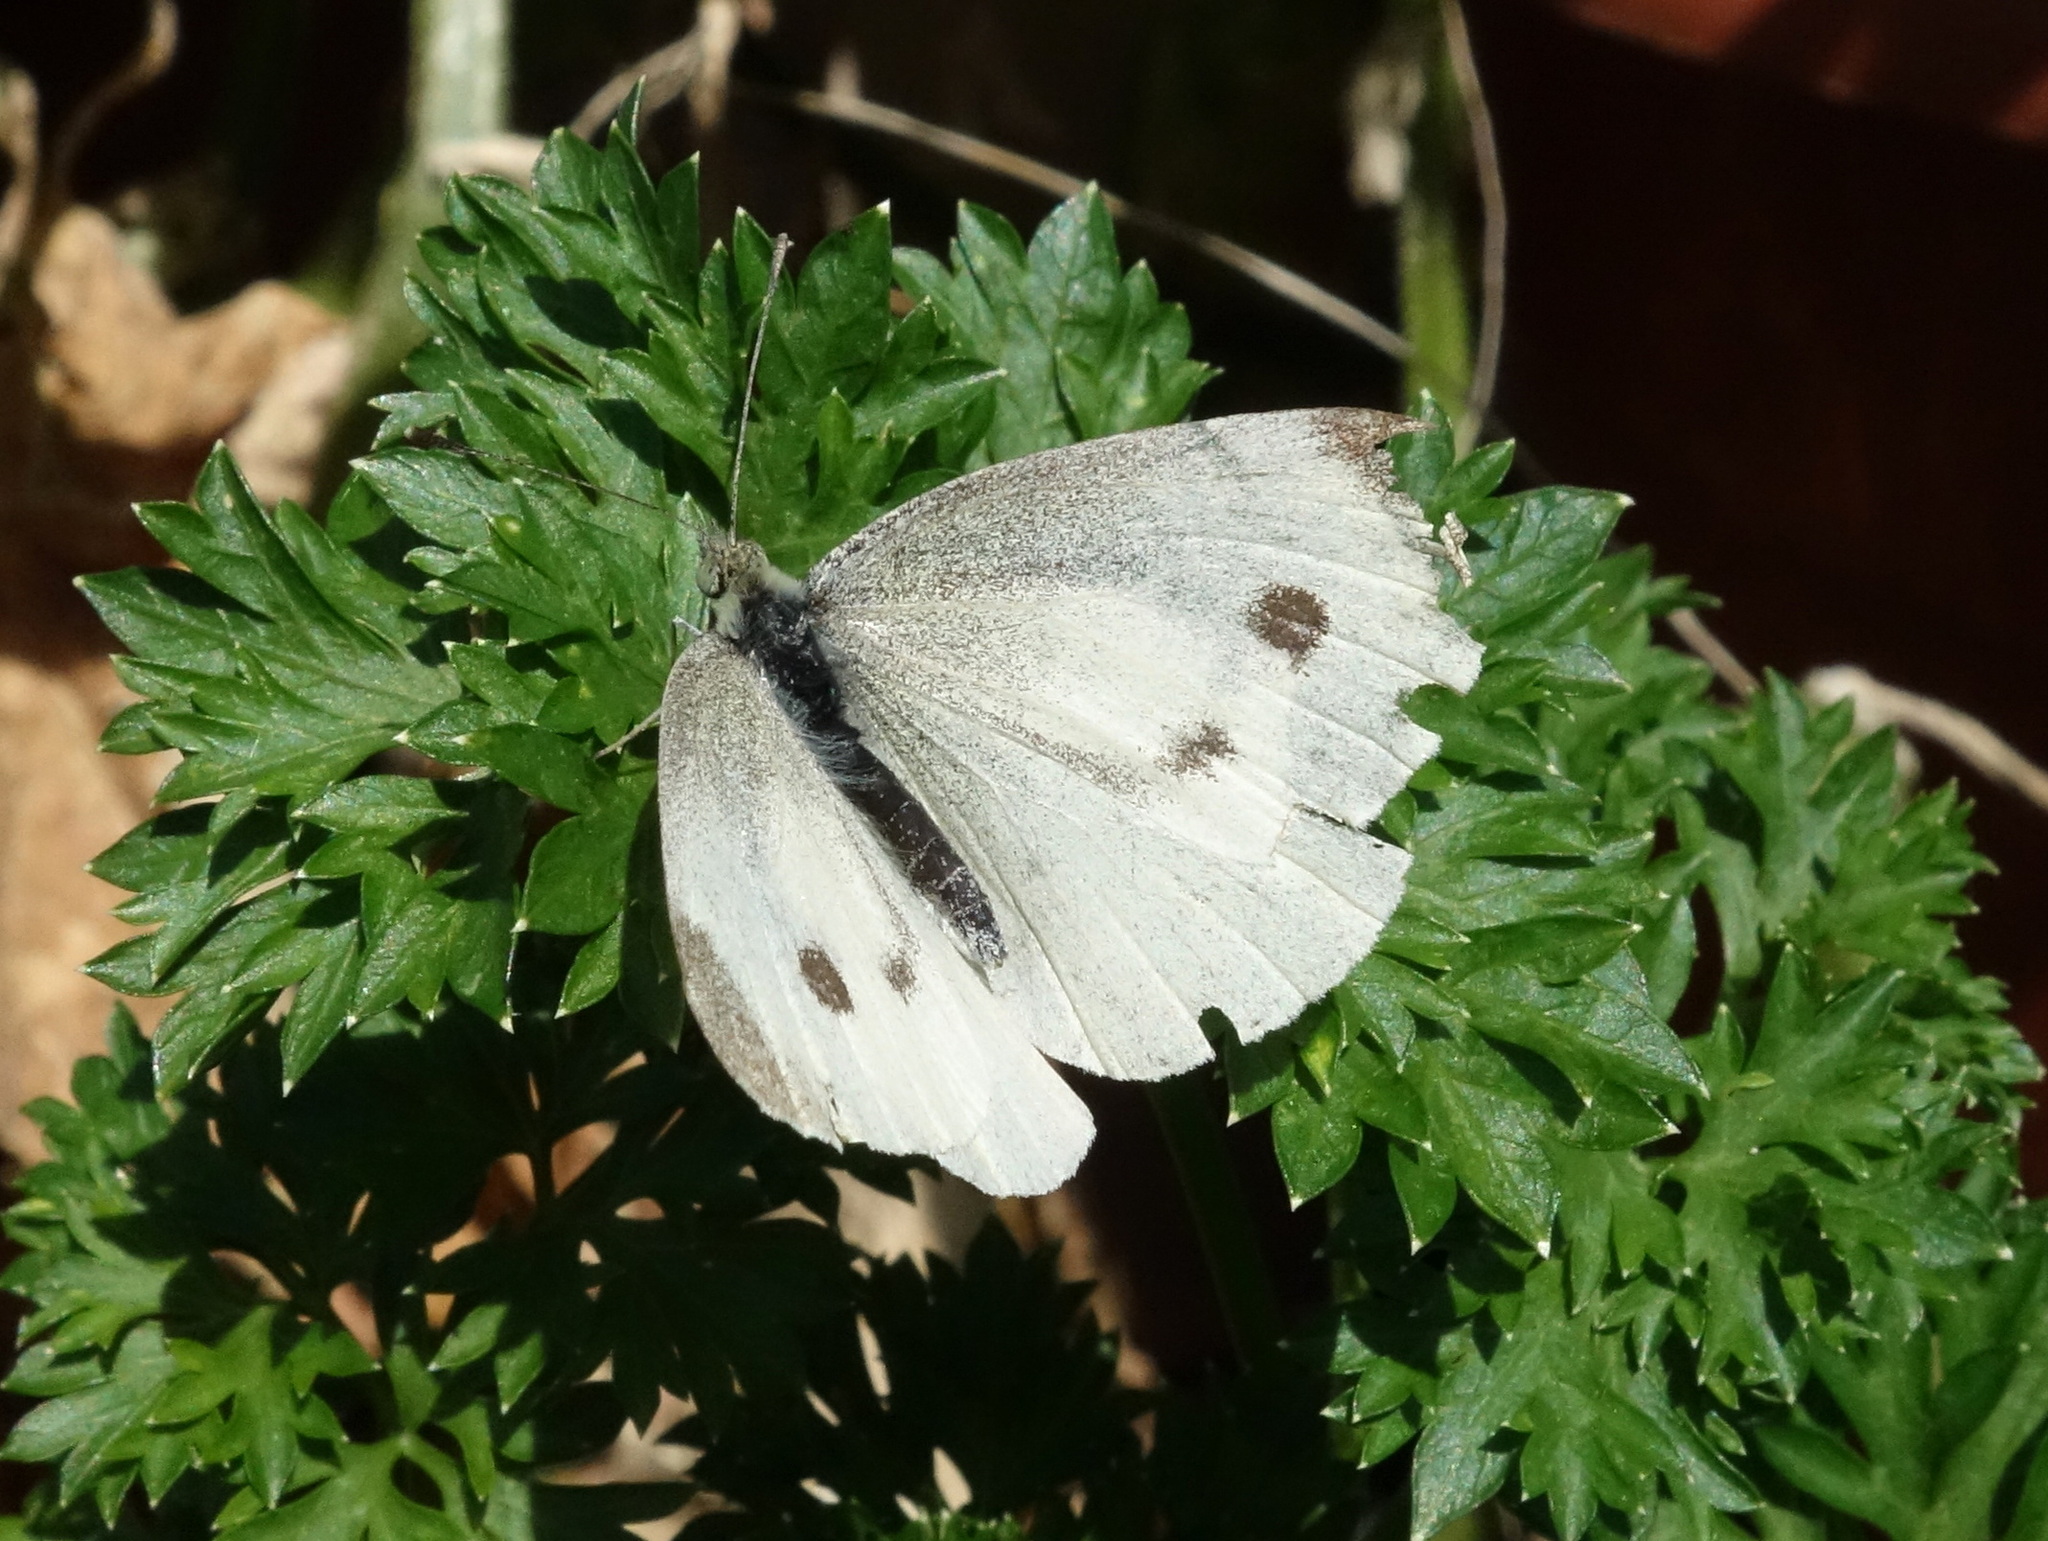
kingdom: Animalia
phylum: Arthropoda
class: Insecta
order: Lepidoptera
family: Pieridae
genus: Pieris
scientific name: Pieris rapae
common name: Small white
